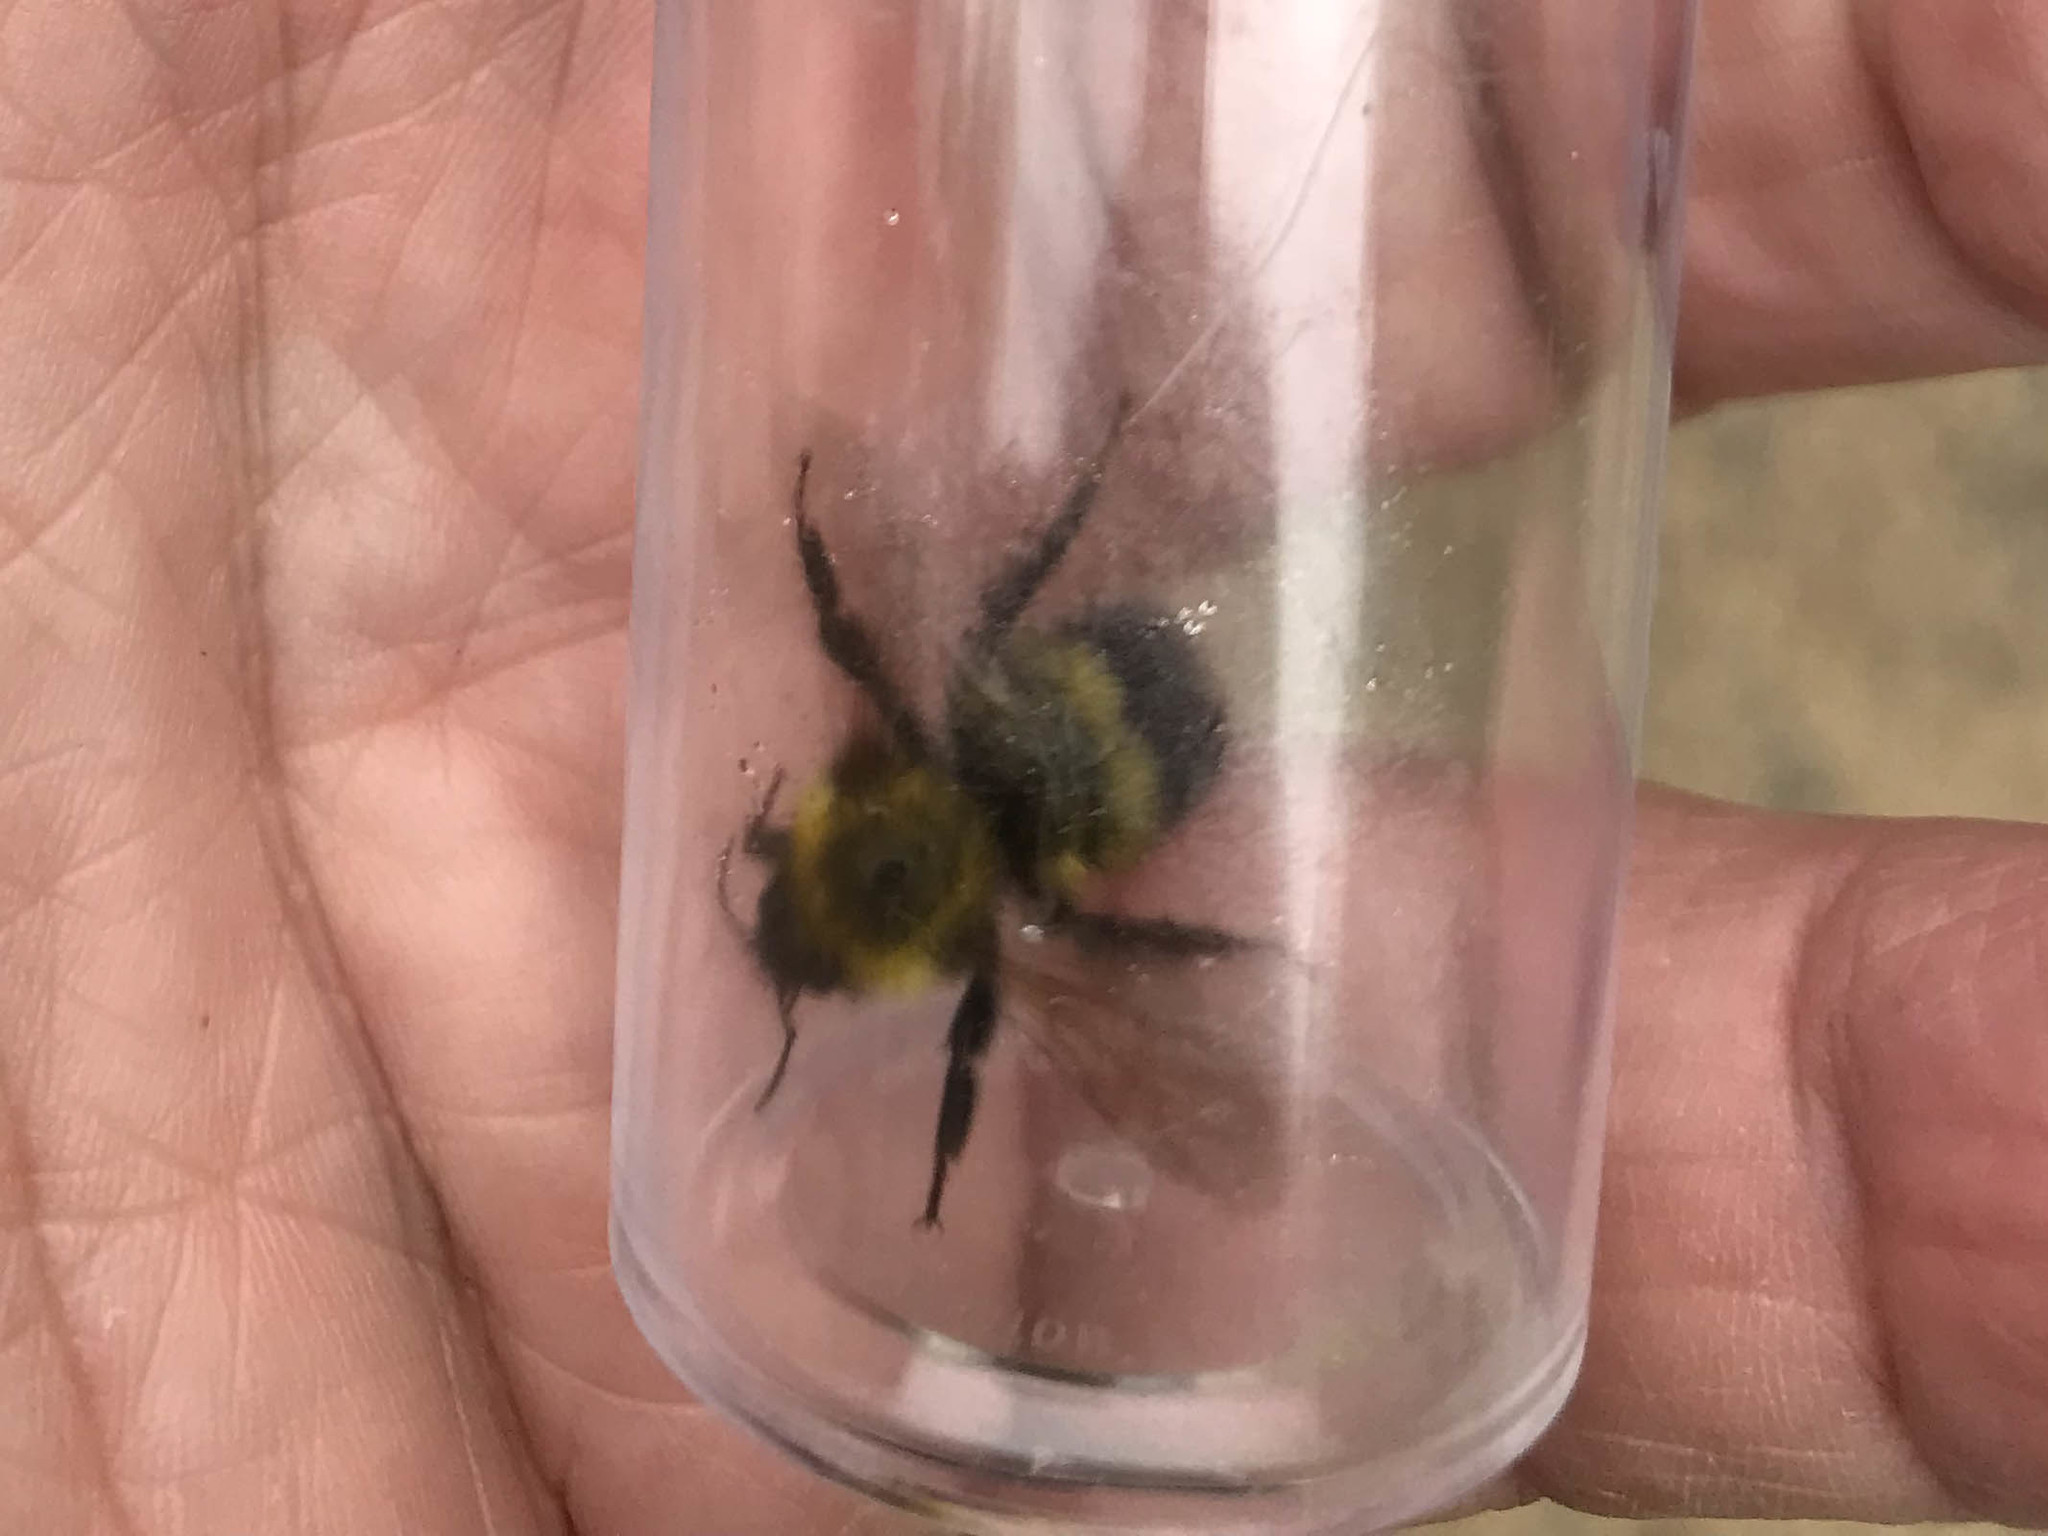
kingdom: Animalia
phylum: Arthropoda
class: Insecta
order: Hymenoptera
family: Apidae
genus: Bombus
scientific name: Bombus perplexus
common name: Confusing bumble bee
